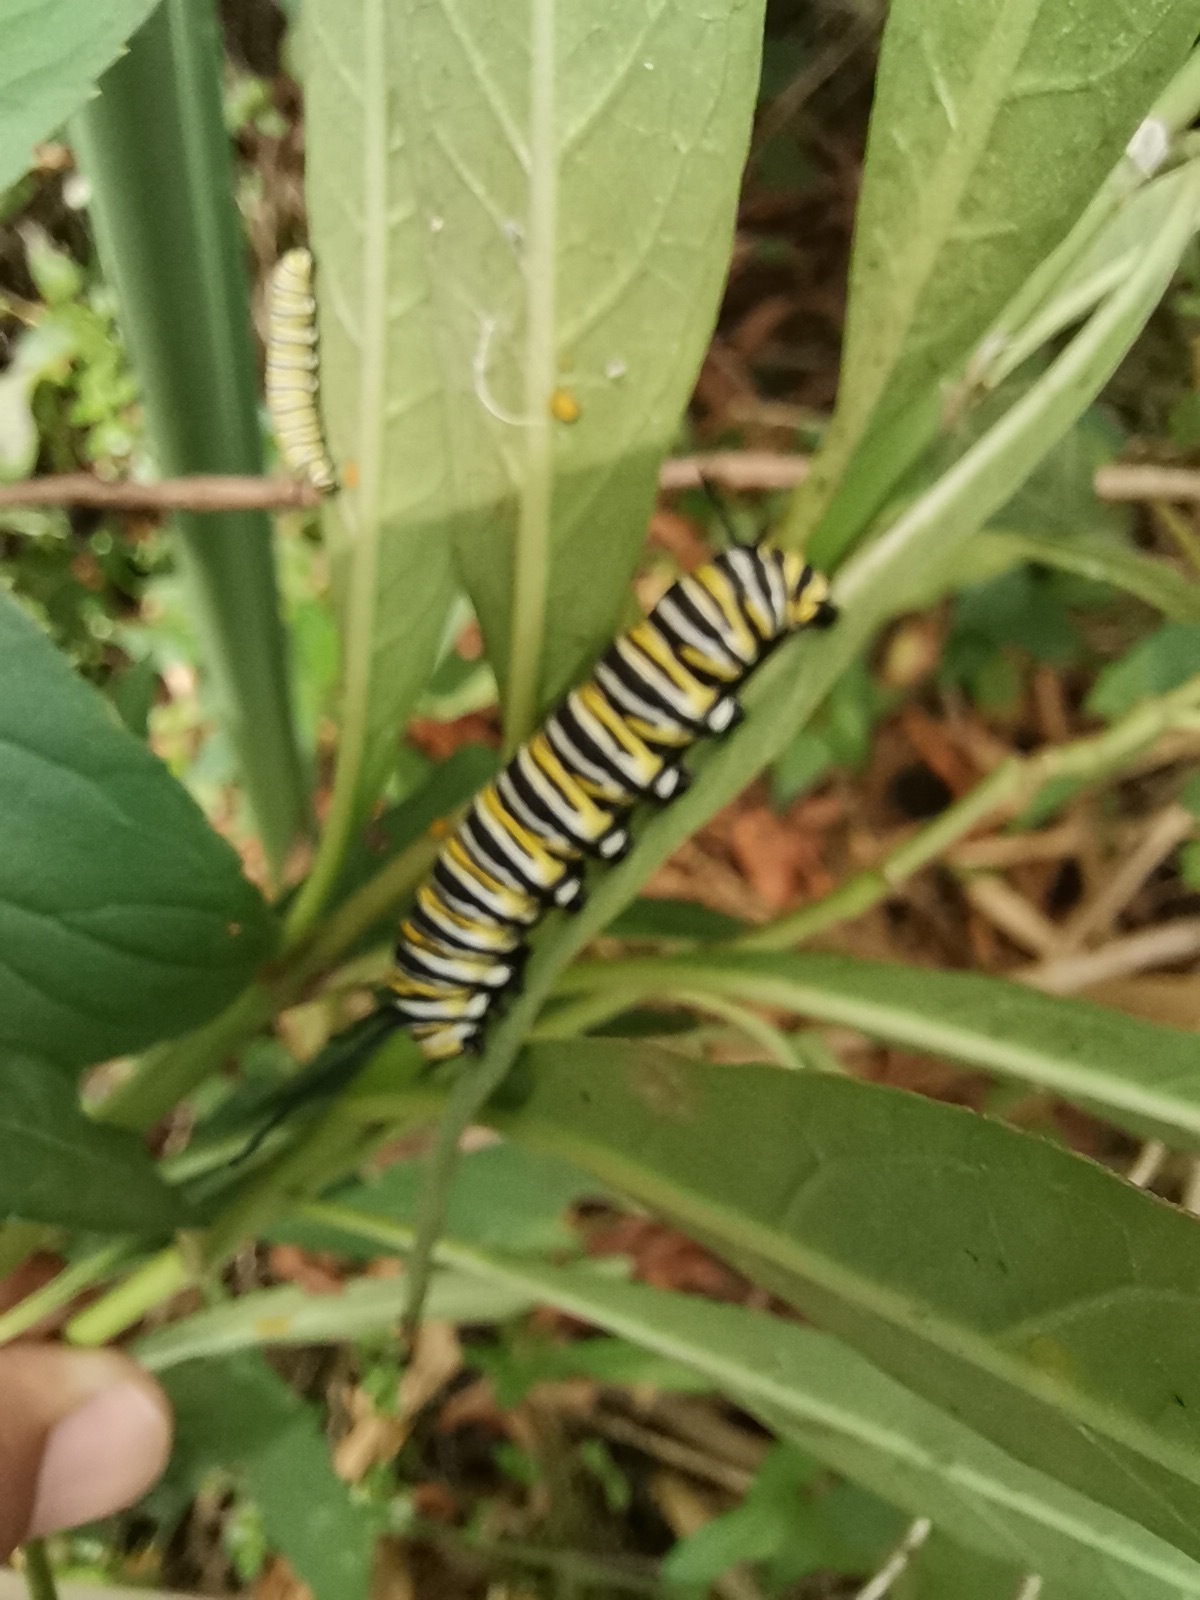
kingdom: Animalia
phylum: Arthropoda
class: Insecta
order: Lepidoptera
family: Nymphalidae
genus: Danaus
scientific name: Danaus plexippus
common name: Monarch
